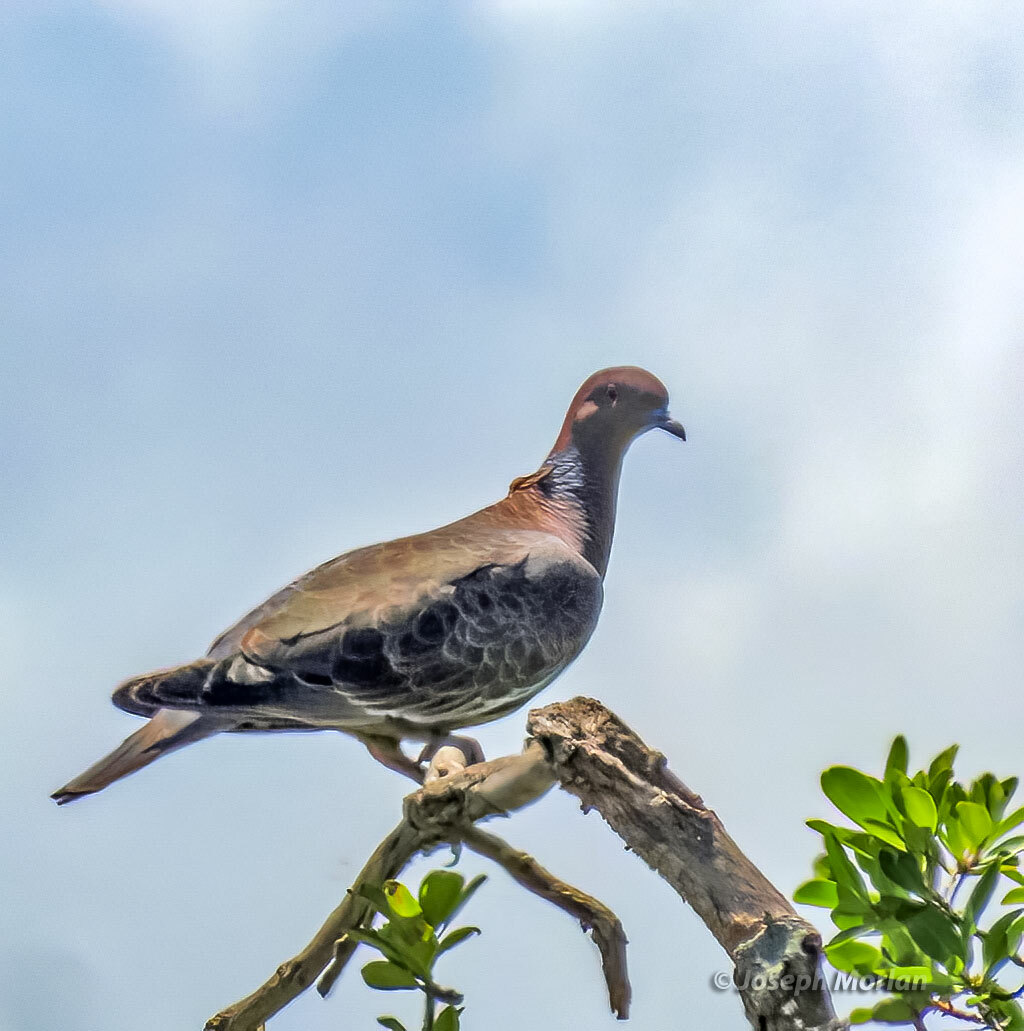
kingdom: Animalia
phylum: Chordata
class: Aves
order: Columbiformes
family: Columbidae
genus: Patagioenas
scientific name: Patagioenas picazuro
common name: Picazuro pigeon
